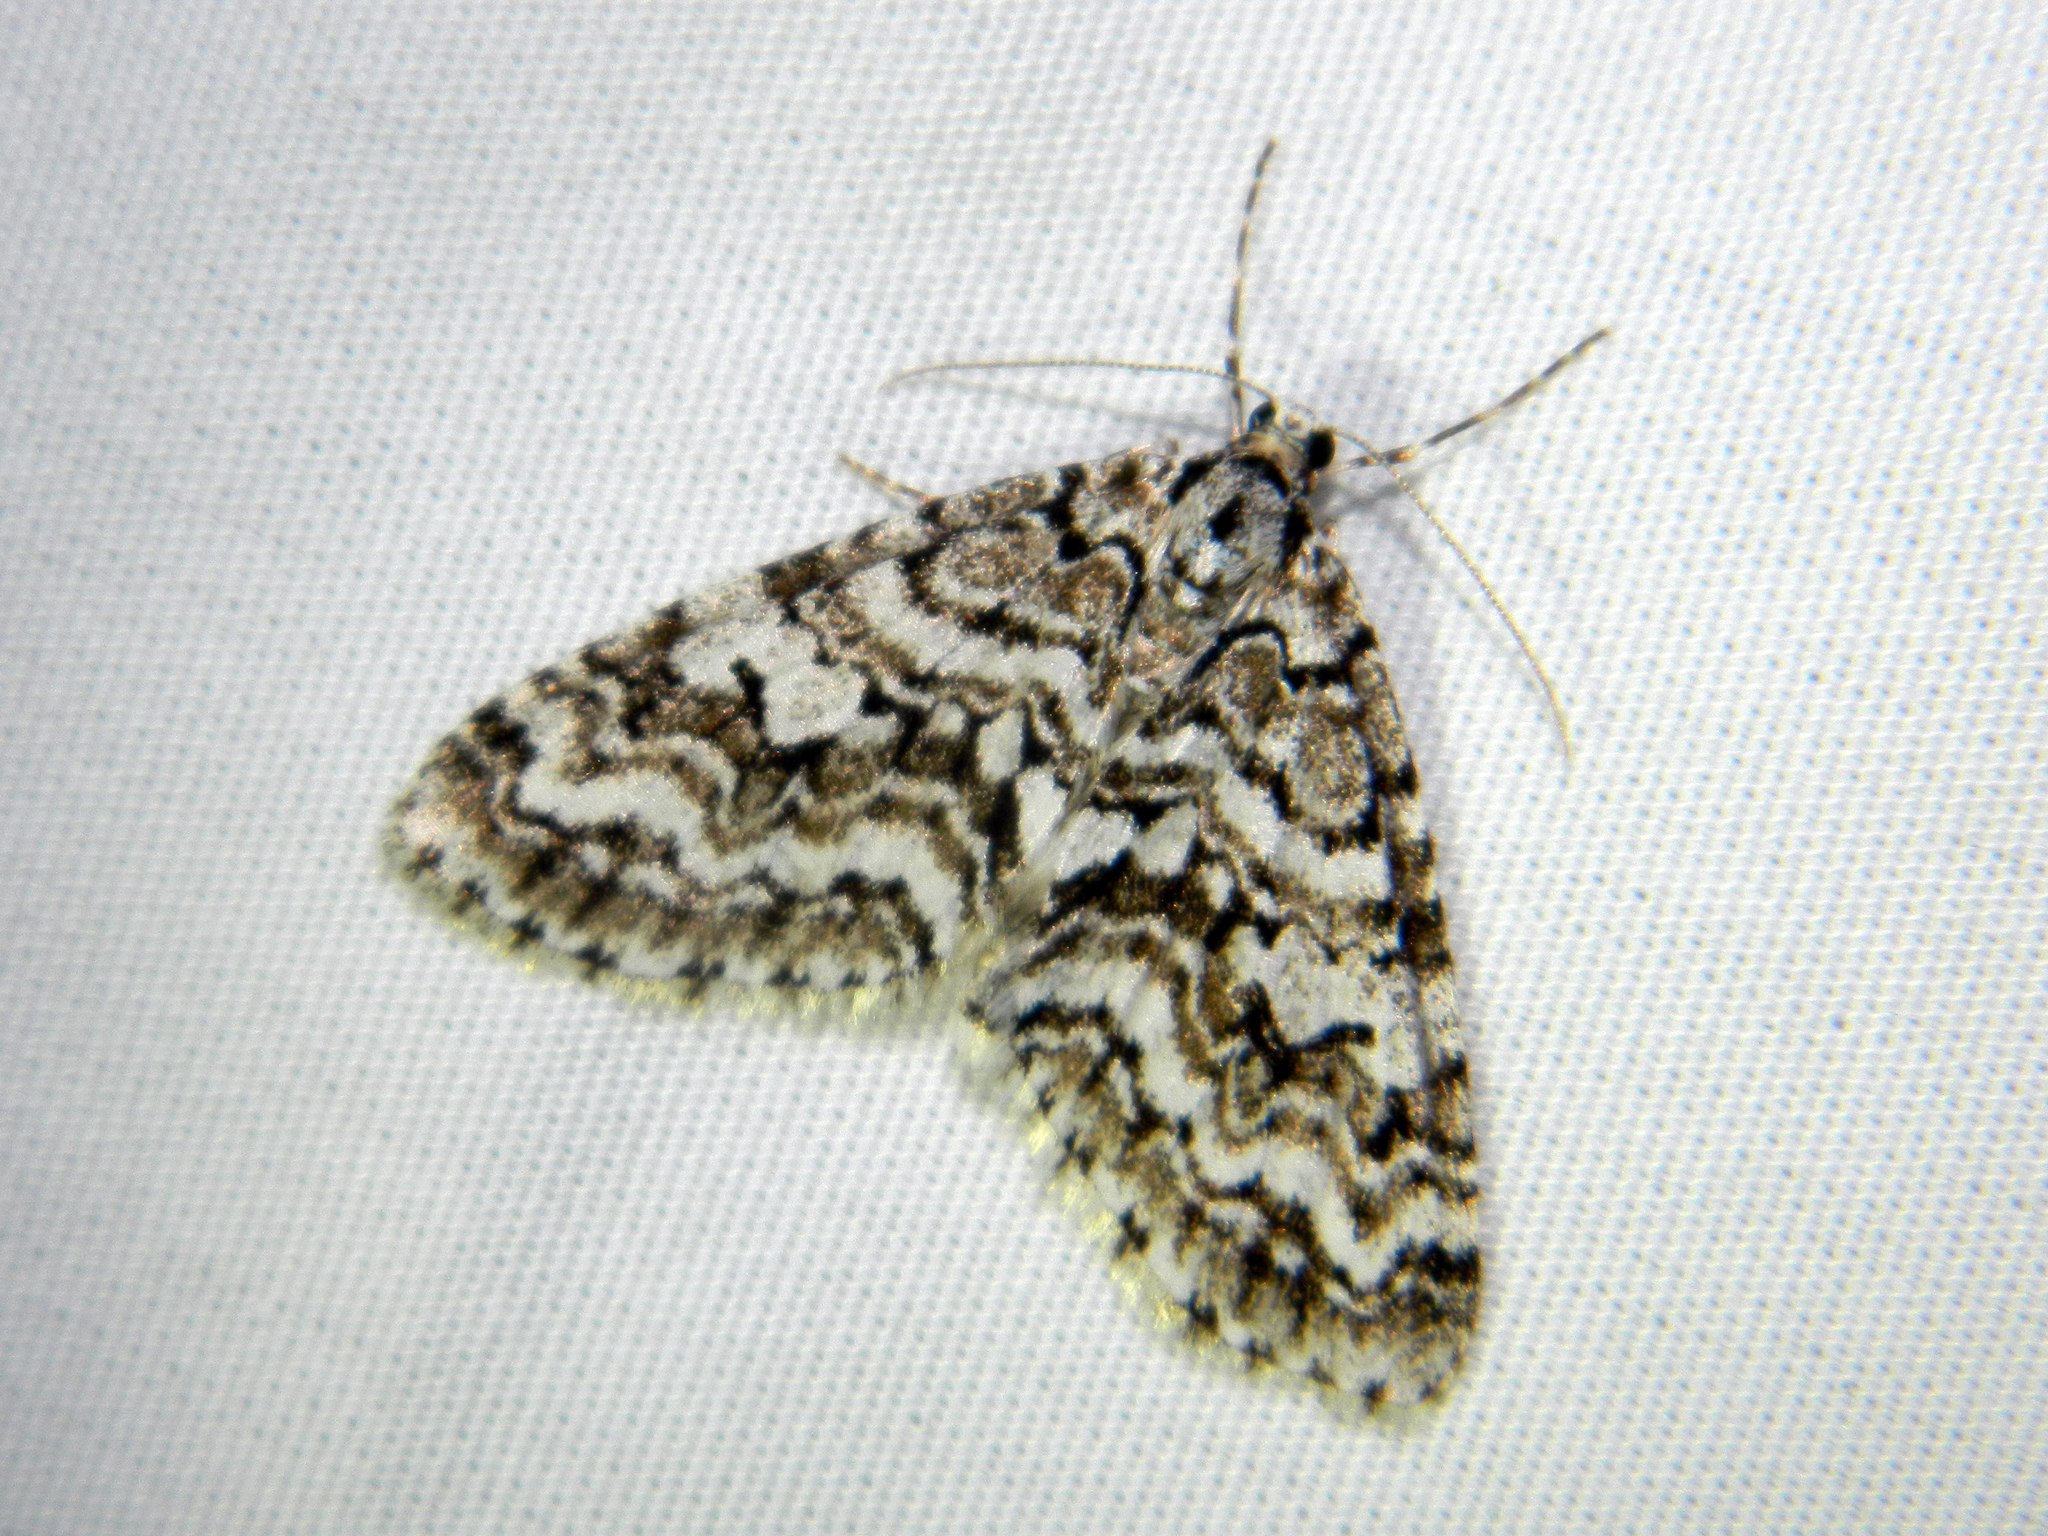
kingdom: Animalia
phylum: Arthropoda
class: Insecta
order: Lepidoptera
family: Geometridae
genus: Cladara
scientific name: Cladara atroliturata
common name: Scribbler
